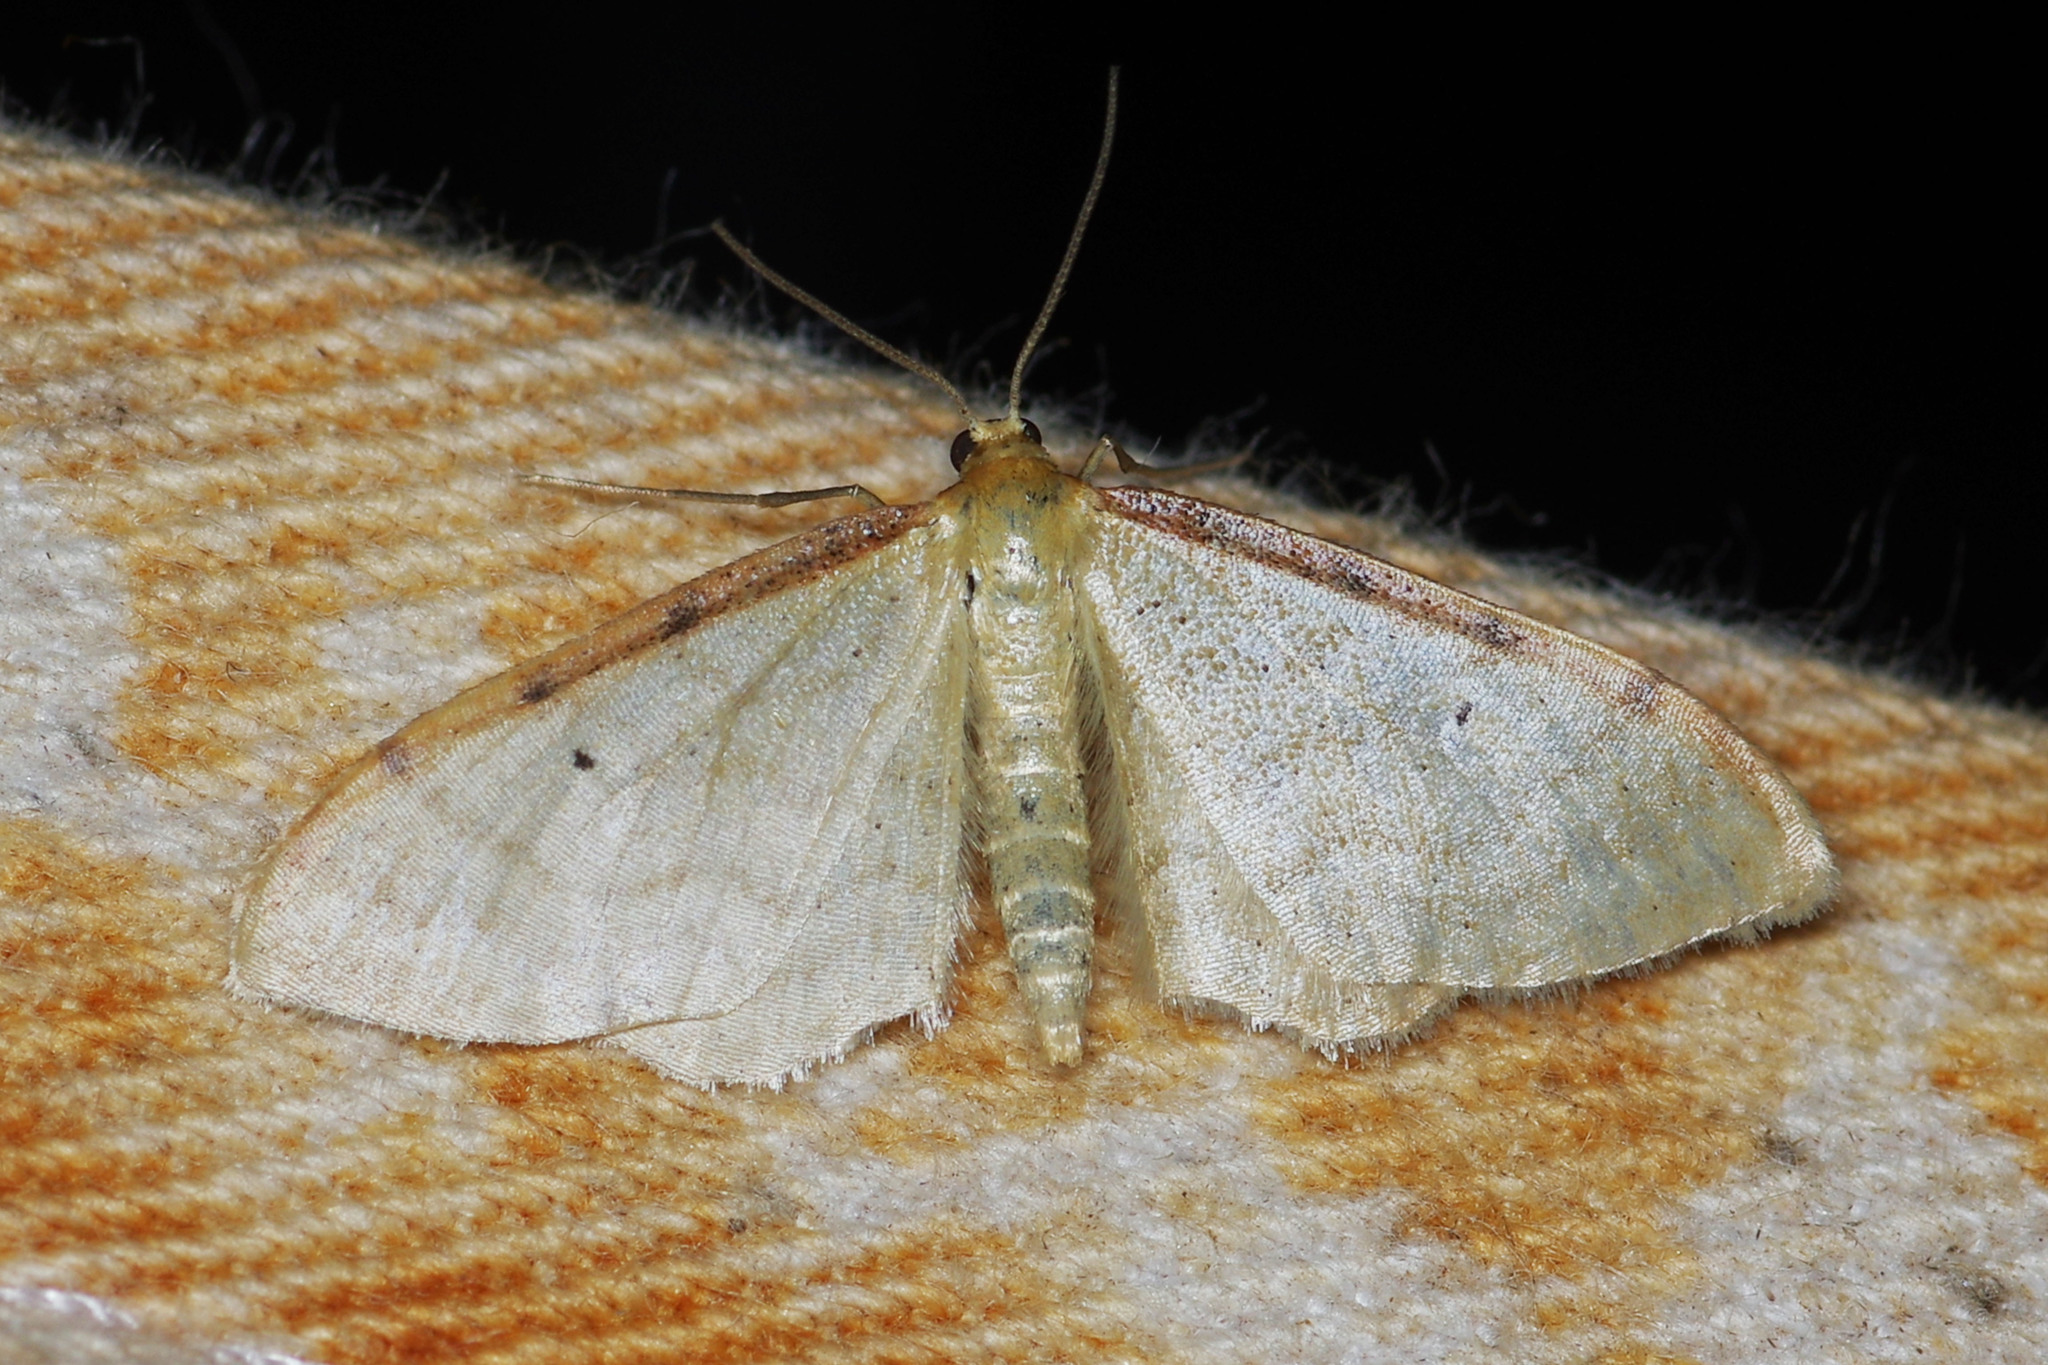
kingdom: Animalia
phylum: Arthropoda
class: Insecta
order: Lepidoptera
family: Geometridae
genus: Idaea
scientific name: Idaea fuscovenosa
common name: Dwarf cream wave
